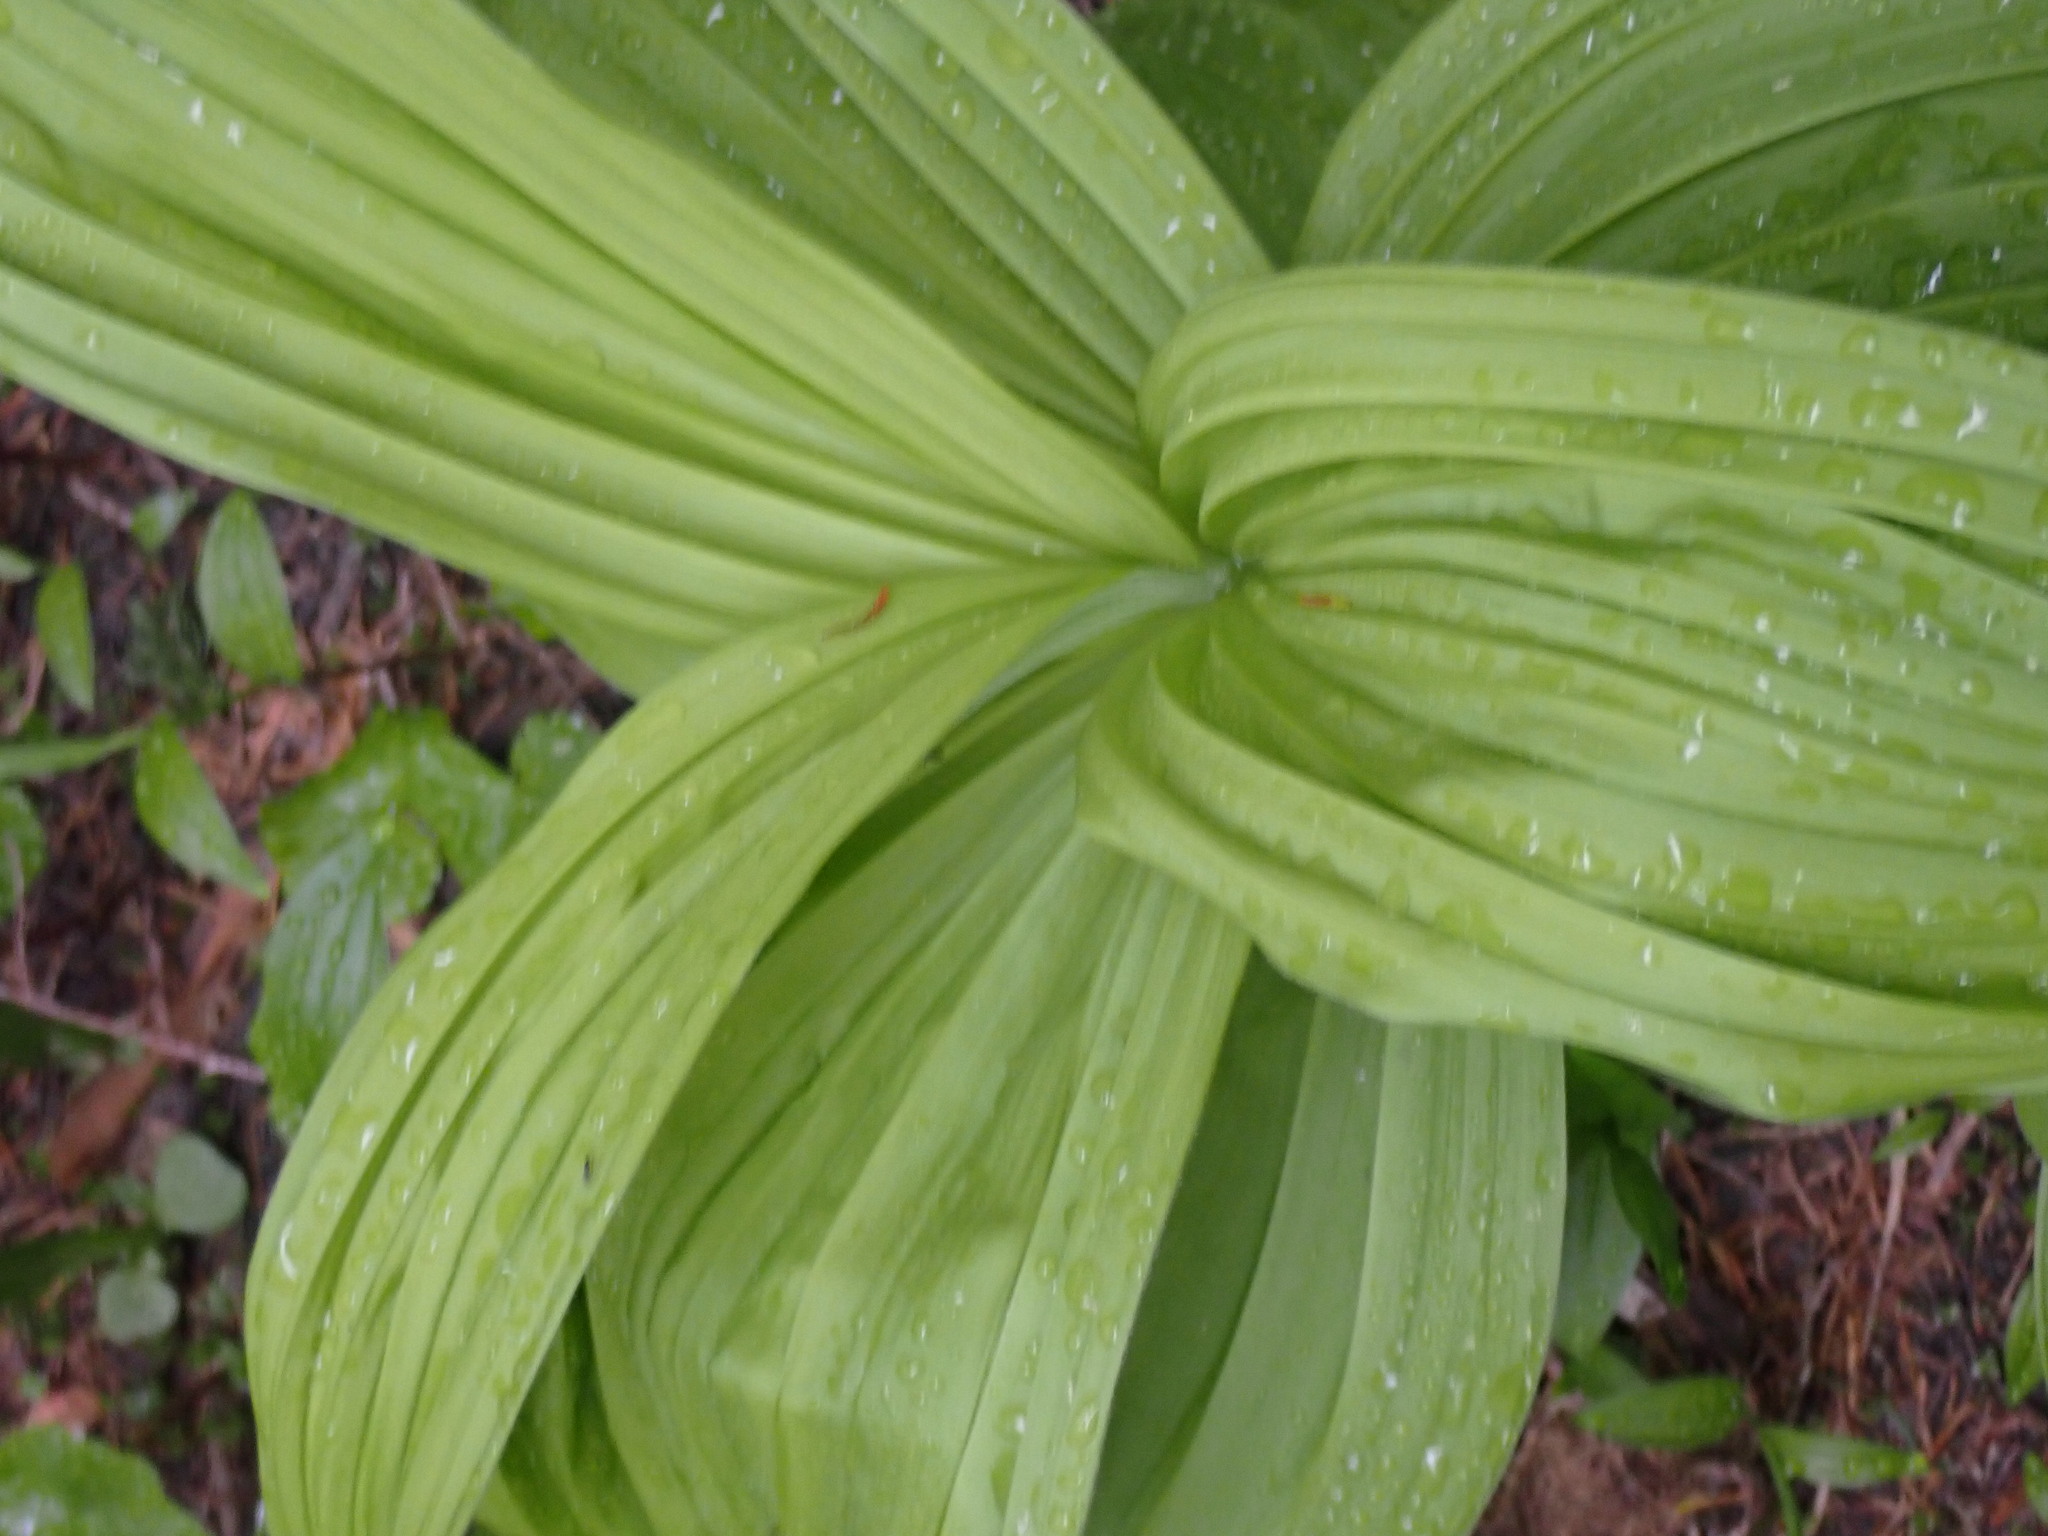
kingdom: Plantae
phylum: Tracheophyta
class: Liliopsida
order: Liliales
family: Melanthiaceae
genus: Veratrum
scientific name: Veratrum viride
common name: American false hellebore
